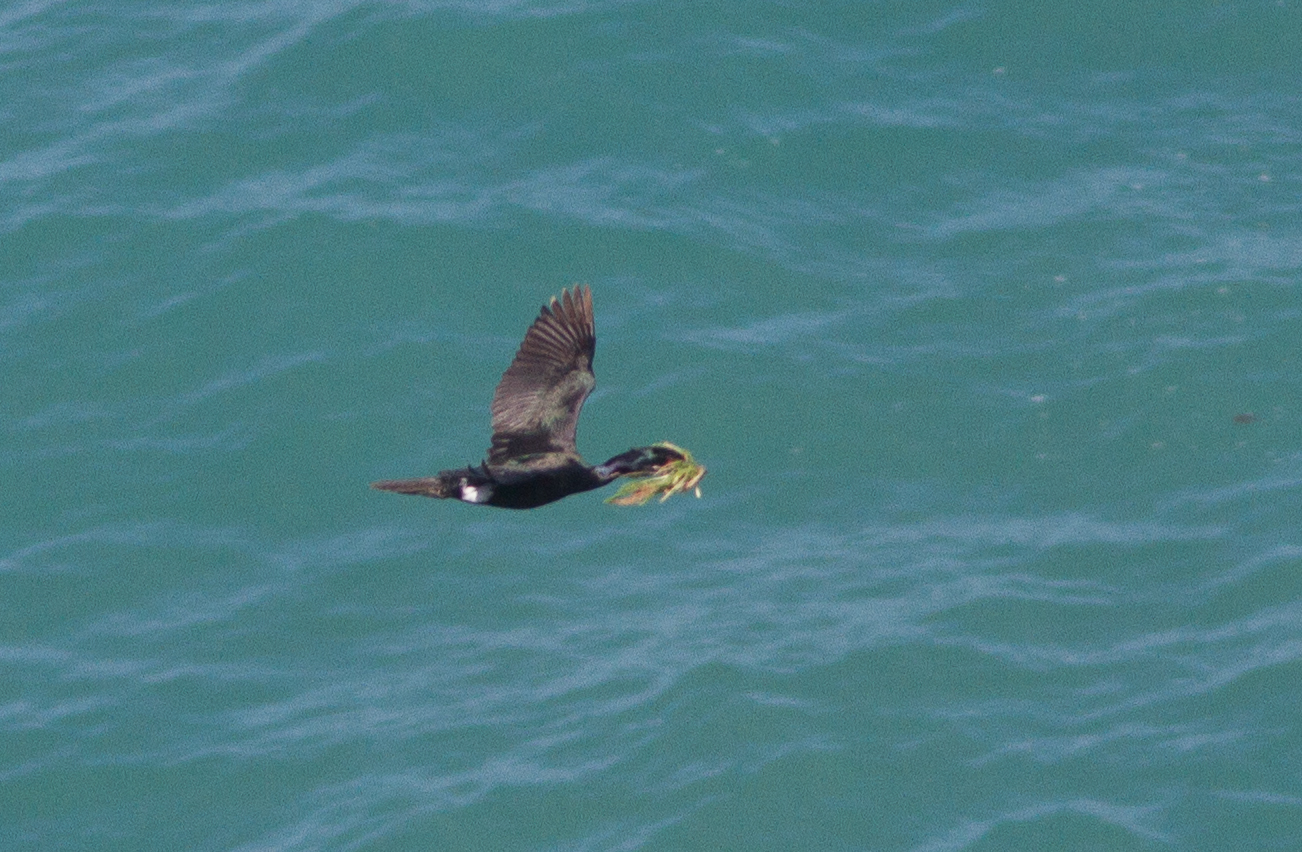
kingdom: Animalia
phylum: Chordata
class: Aves
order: Suliformes
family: Phalacrocoracidae
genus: Phalacrocorax
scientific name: Phalacrocorax pelagicus
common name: Pelagic cormorant
